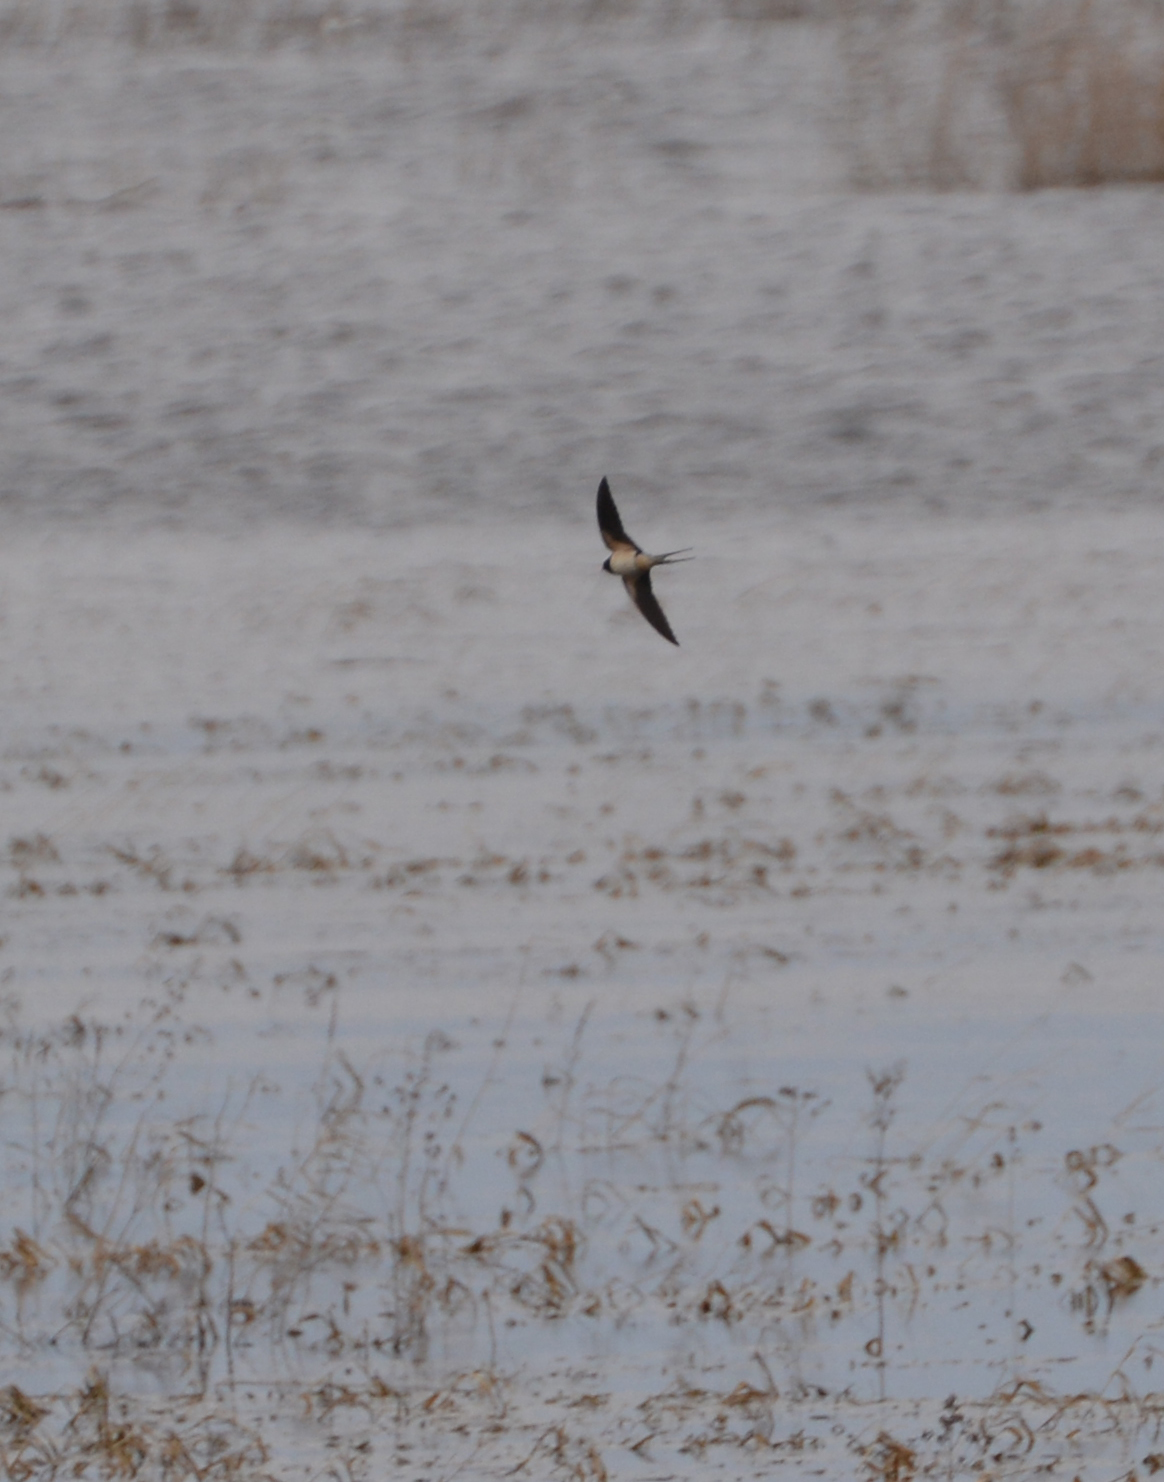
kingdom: Animalia
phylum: Chordata
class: Aves
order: Passeriformes
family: Hirundinidae
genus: Hirundo
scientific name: Hirundo rustica
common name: Barn swallow
